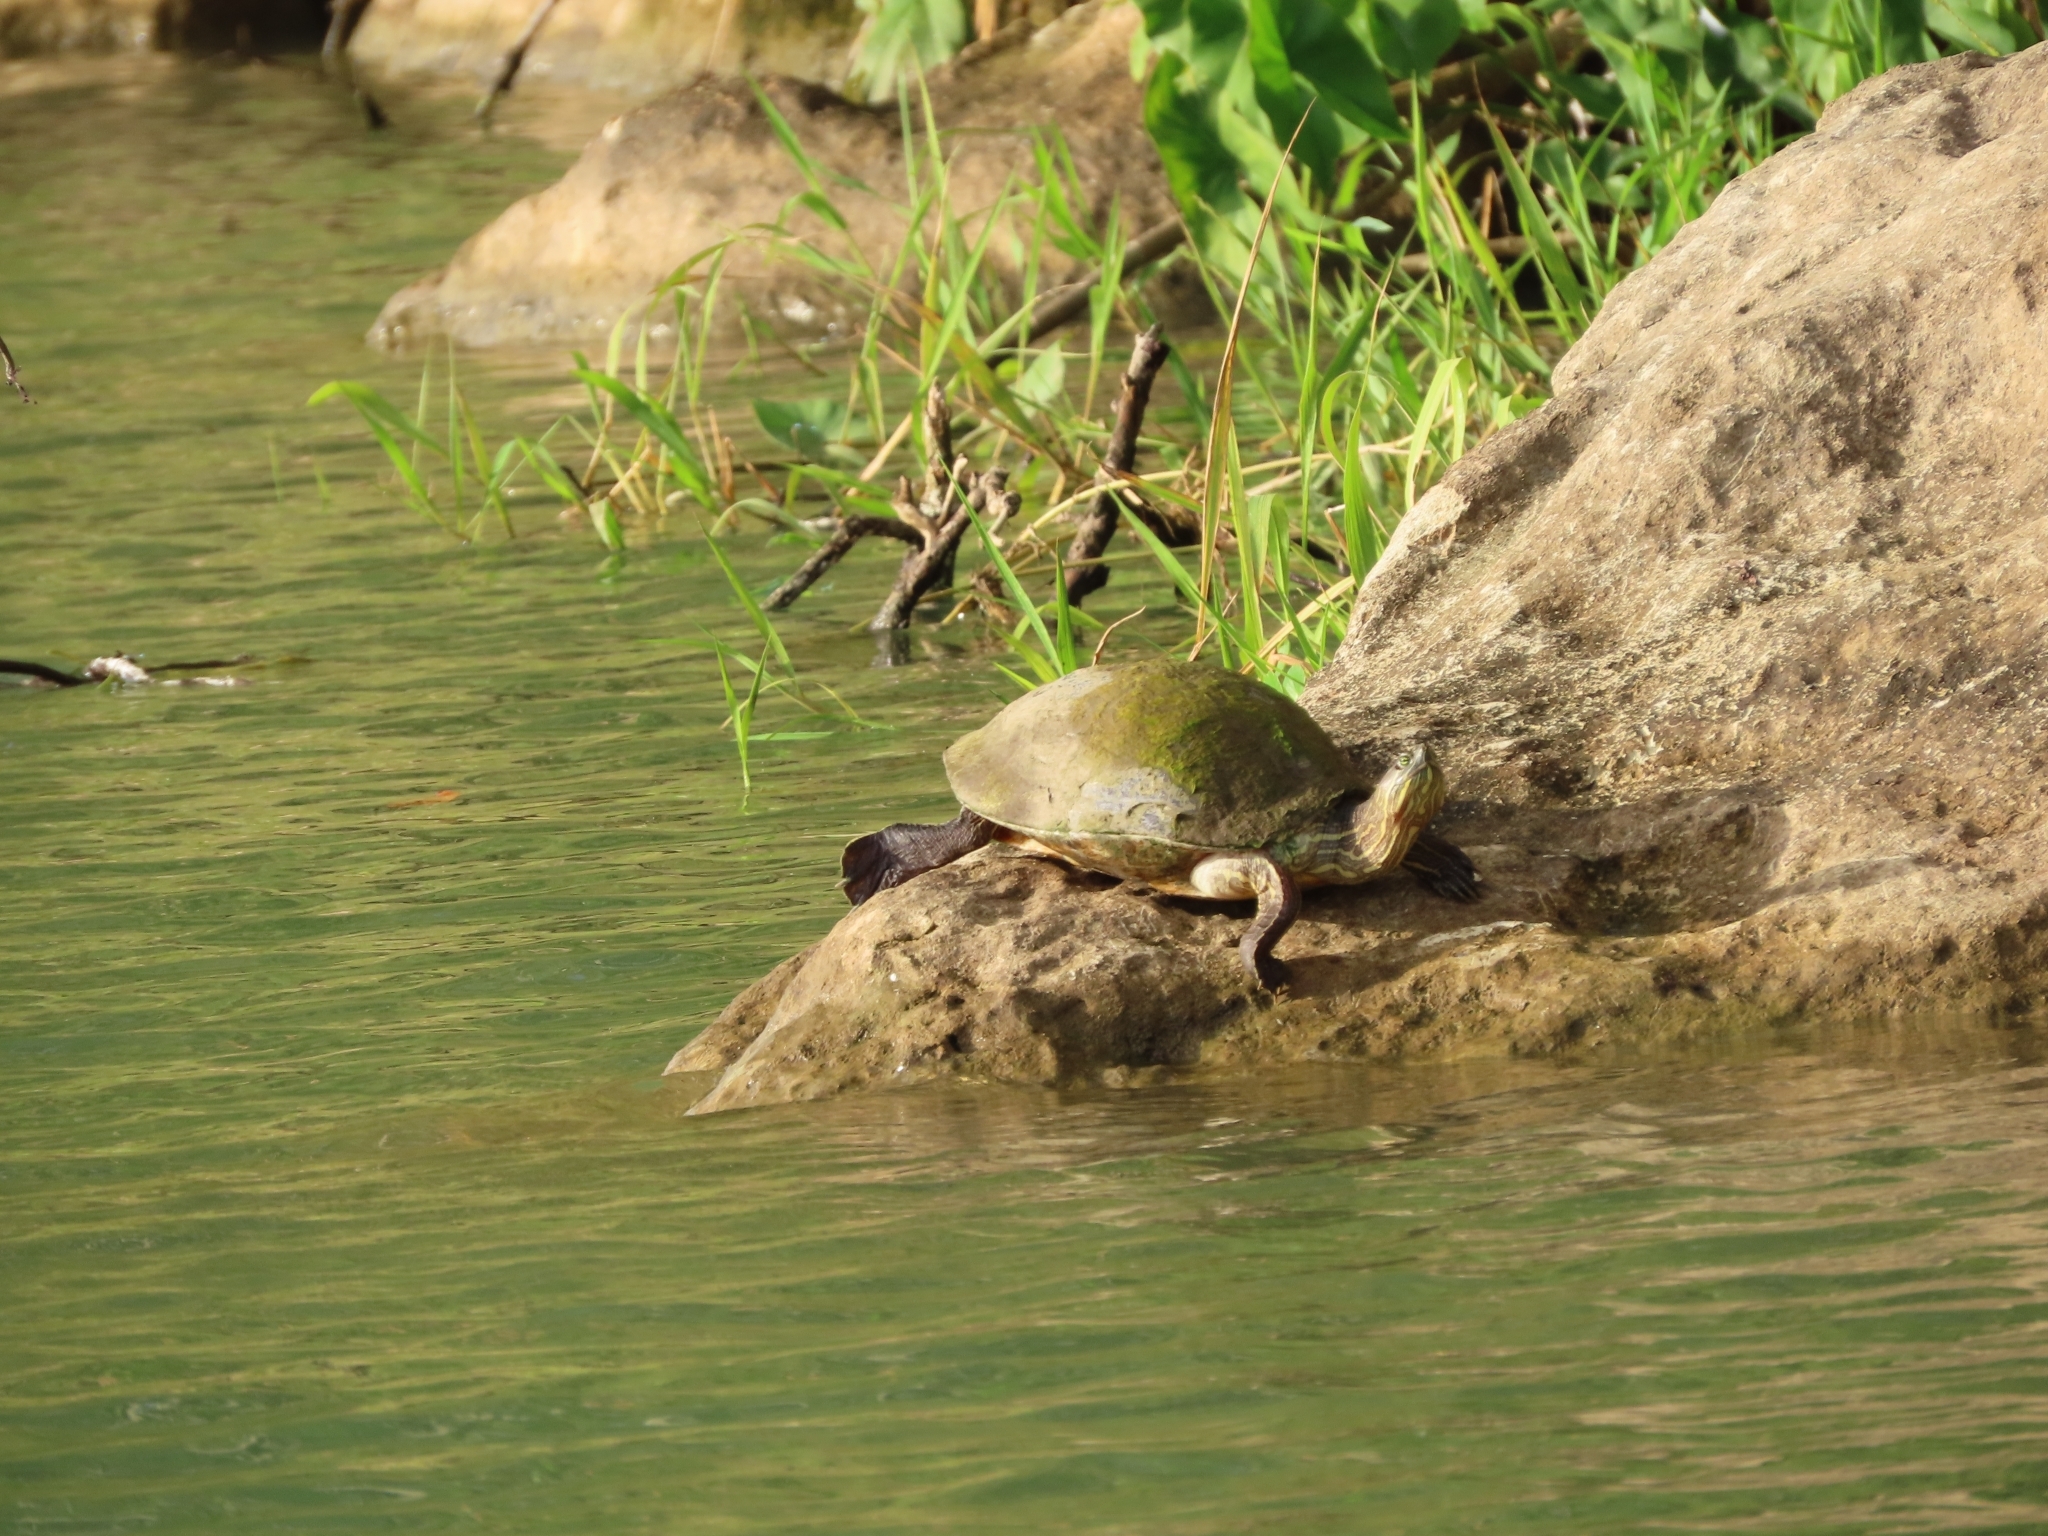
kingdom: Animalia
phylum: Chordata
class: Testudines
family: Emydidae
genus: Trachemys
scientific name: Trachemys venusta
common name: Mesoamerican slider
